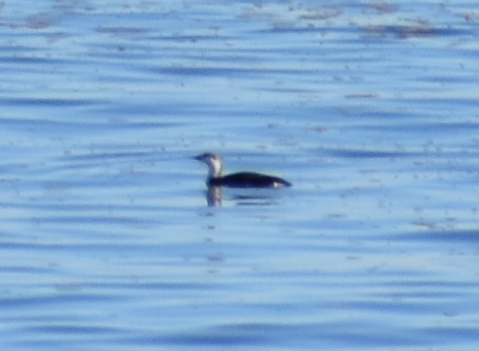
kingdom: Animalia
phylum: Chordata
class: Aves
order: Gaviiformes
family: Gaviidae
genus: Gavia
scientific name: Gavia stellata
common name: Red-throated loon
